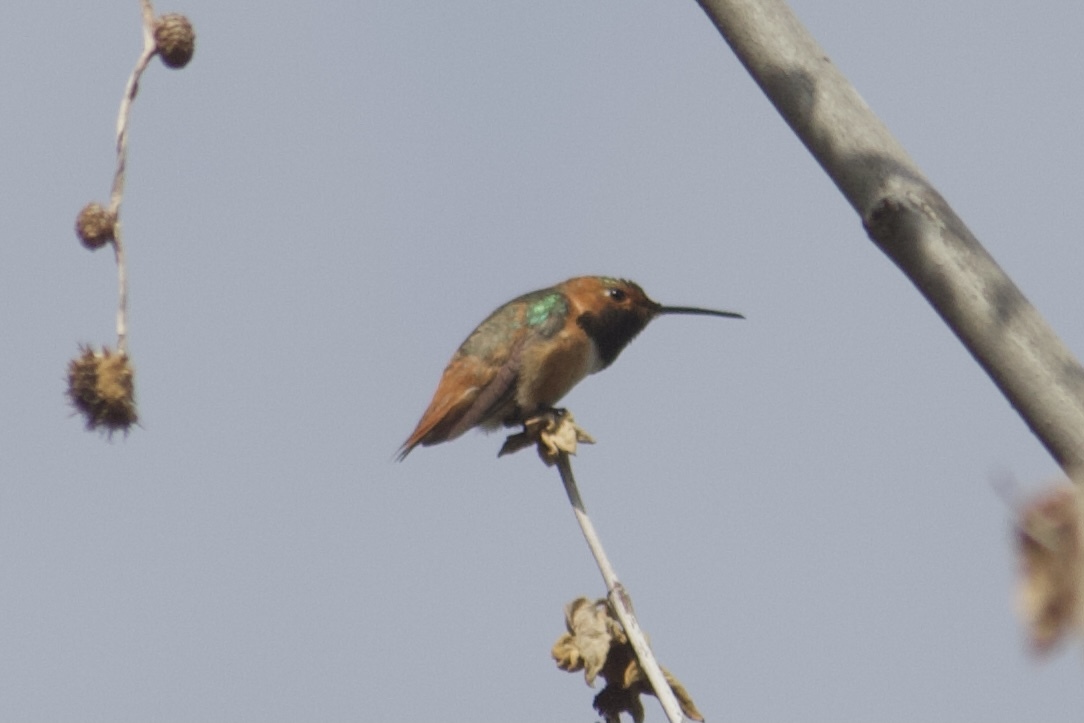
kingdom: Animalia
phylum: Chordata
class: Aves
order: Apodiformes
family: Trochilidae
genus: Selasphorus
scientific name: Selasphorus sasin
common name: Allen's hummingbird
